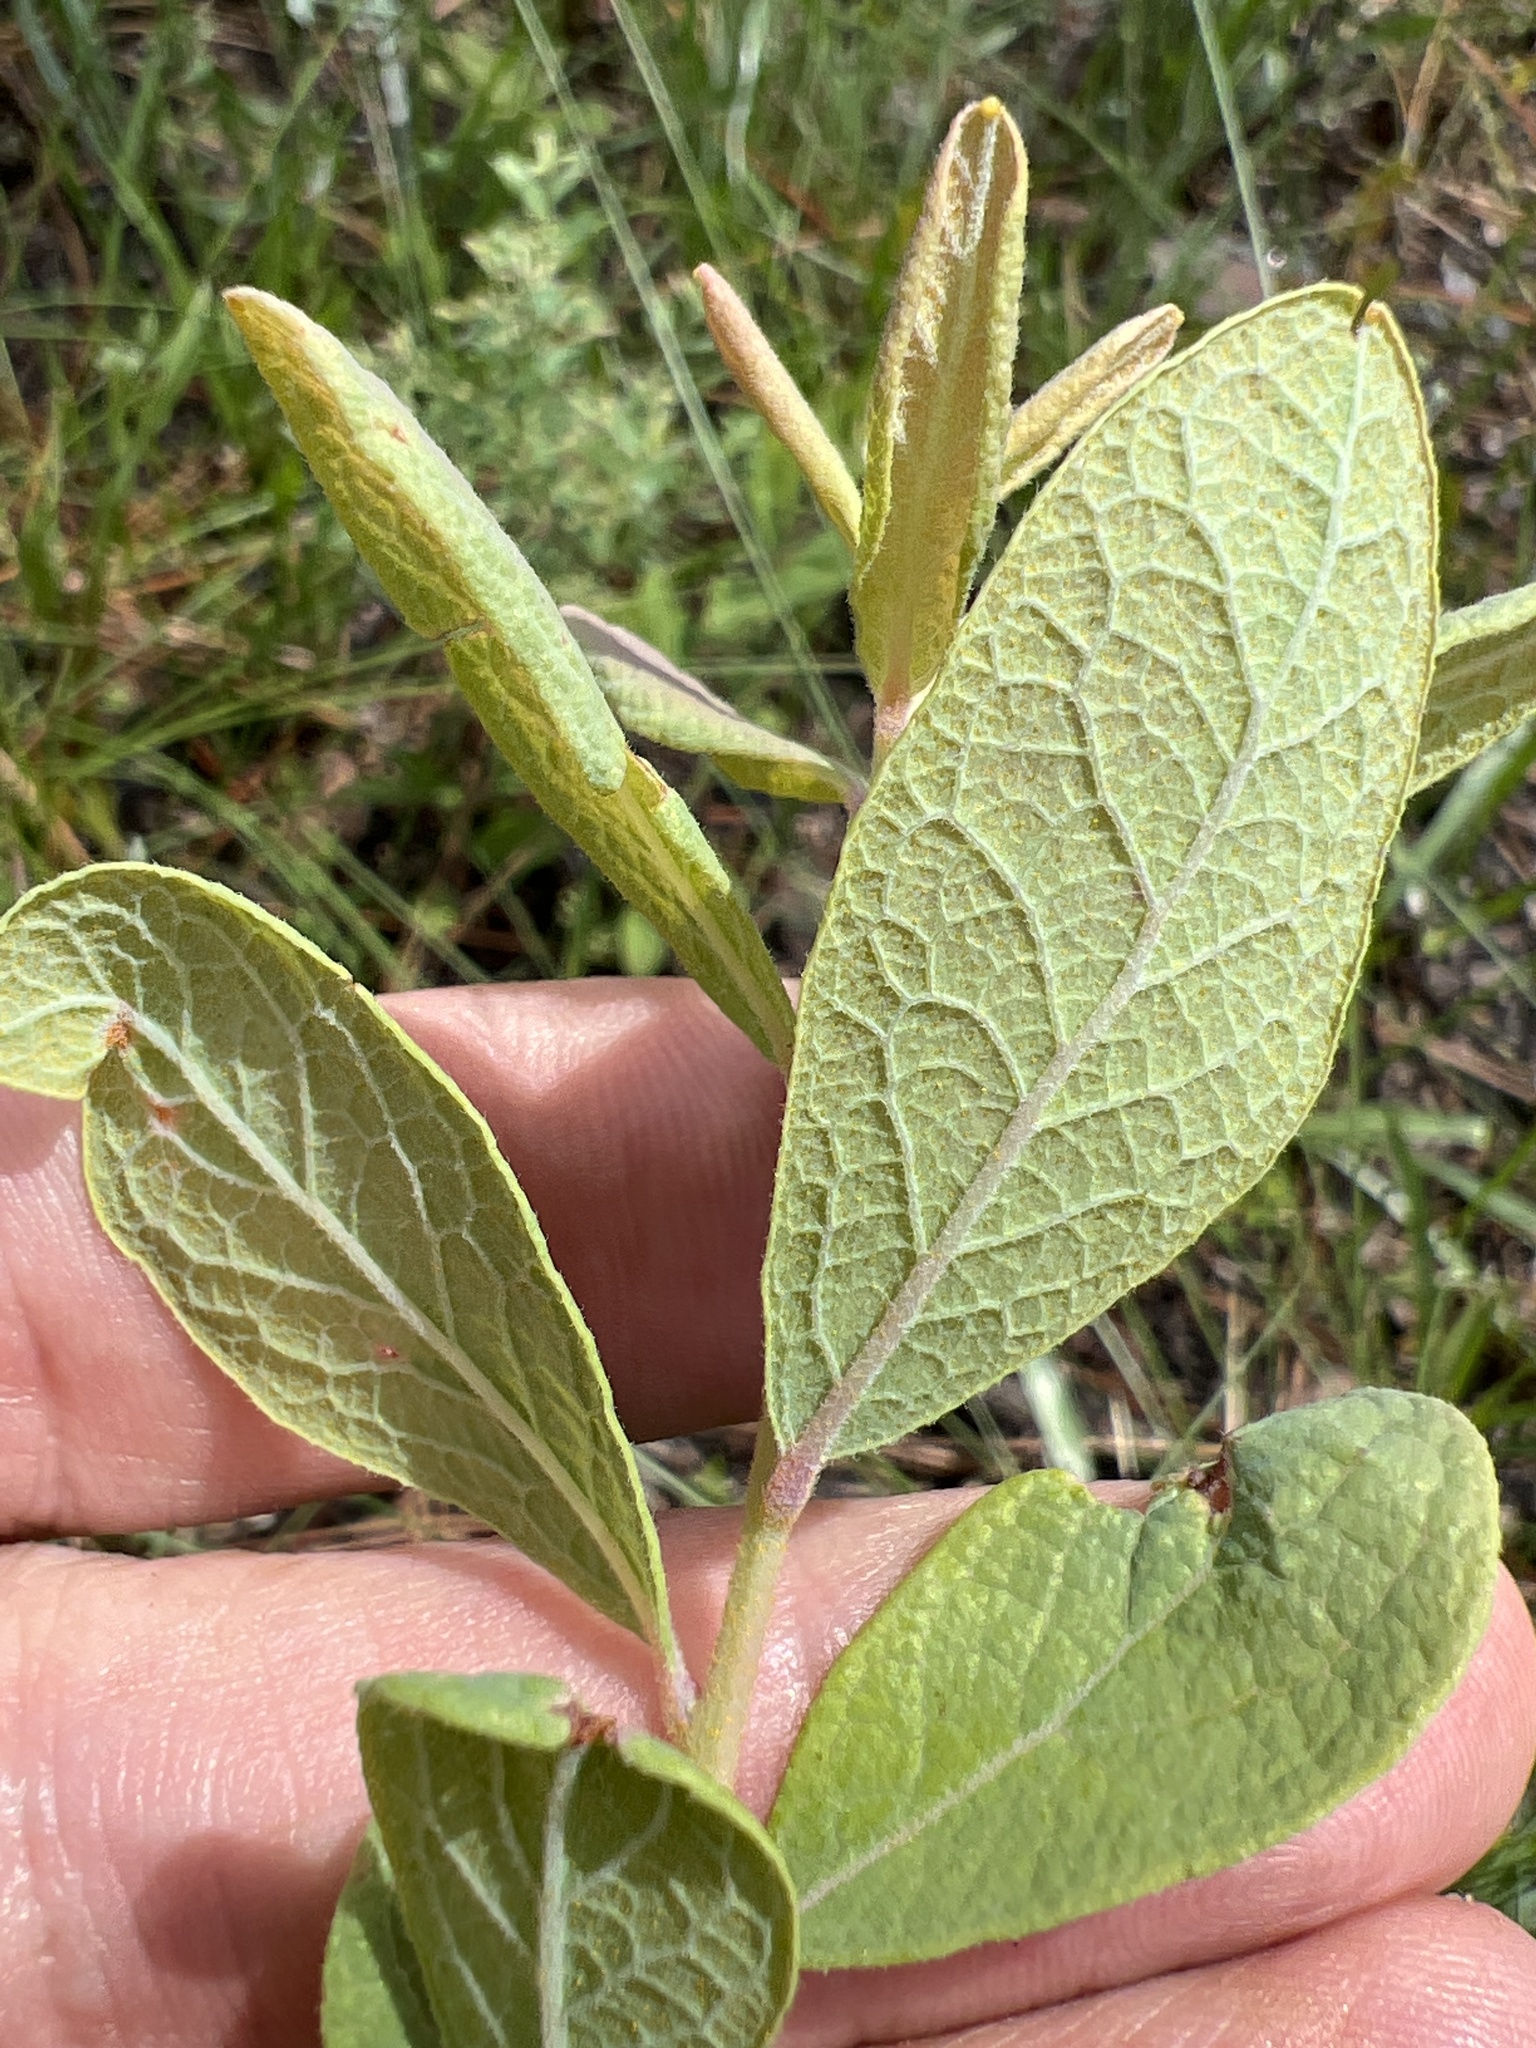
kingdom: Plantae
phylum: Tracheophyta
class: Magnoliopsida
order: Ericales
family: Ericaceae
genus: Gaylussacia
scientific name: Gaylussacia tomentosa
